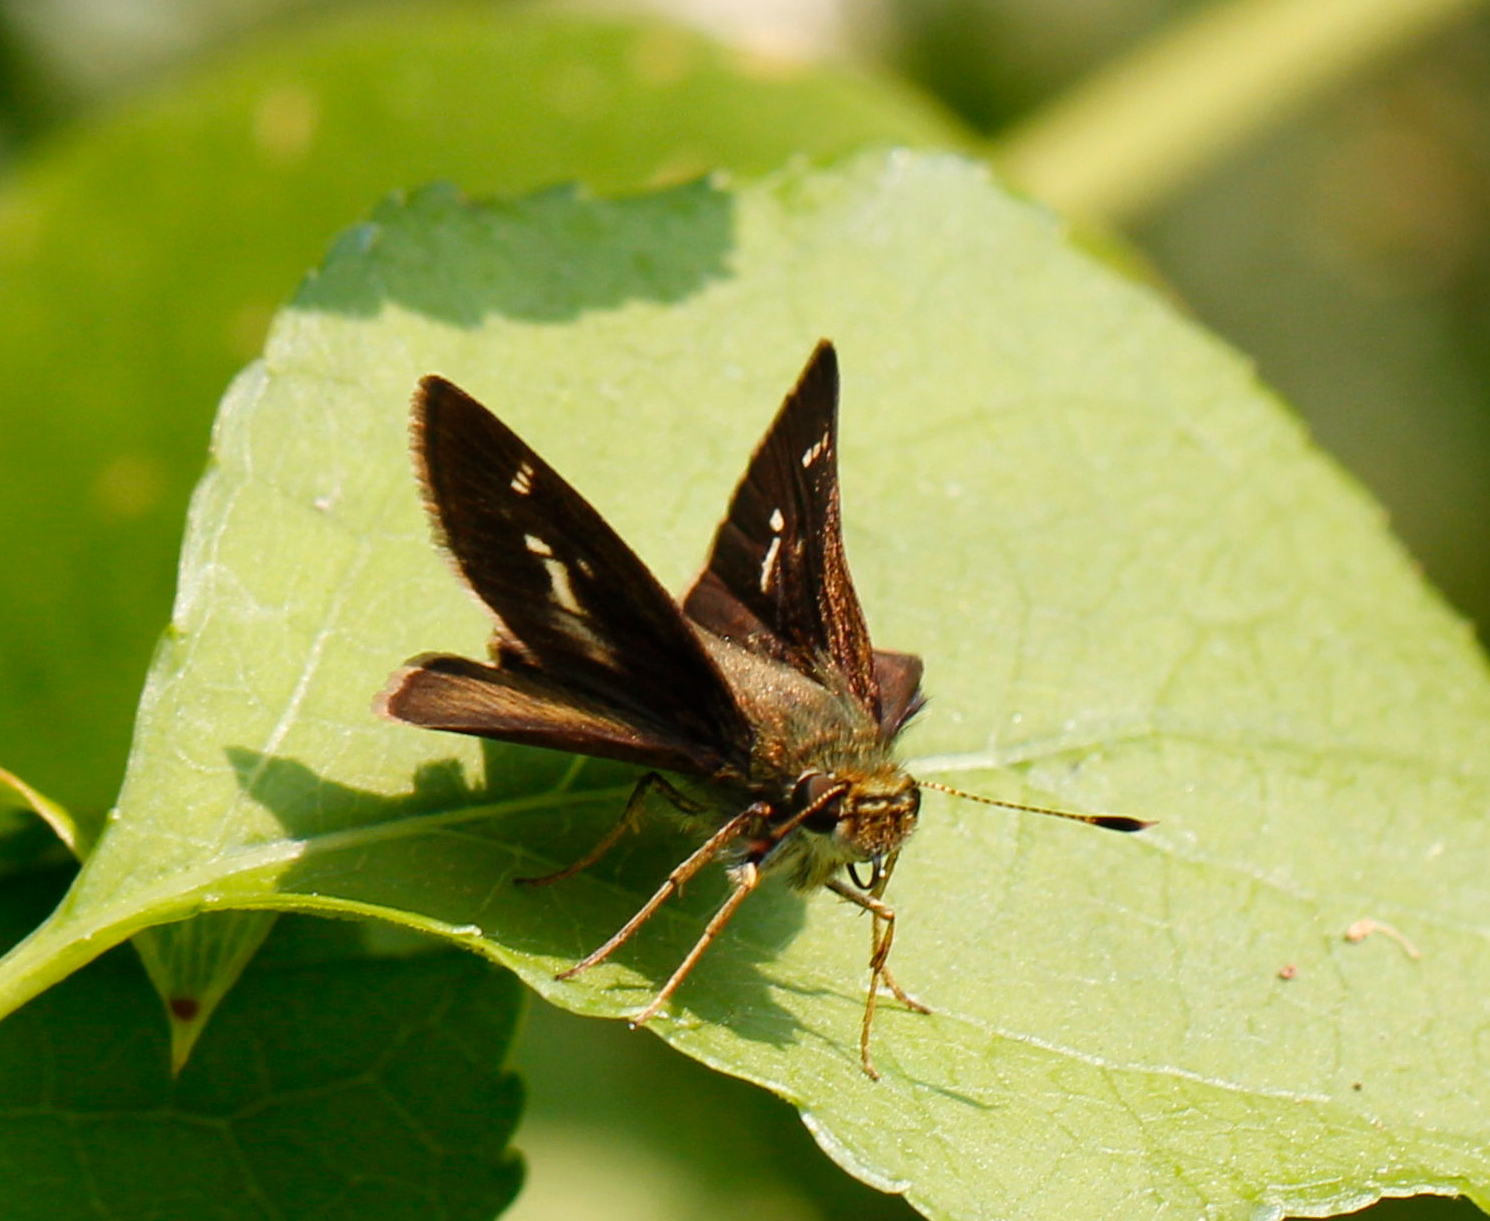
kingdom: Animalia
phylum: Arthropoda
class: Insecta
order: Lepidoptera
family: Hesperiidae
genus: Vernia
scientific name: Vernia verna
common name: Little glassywing
